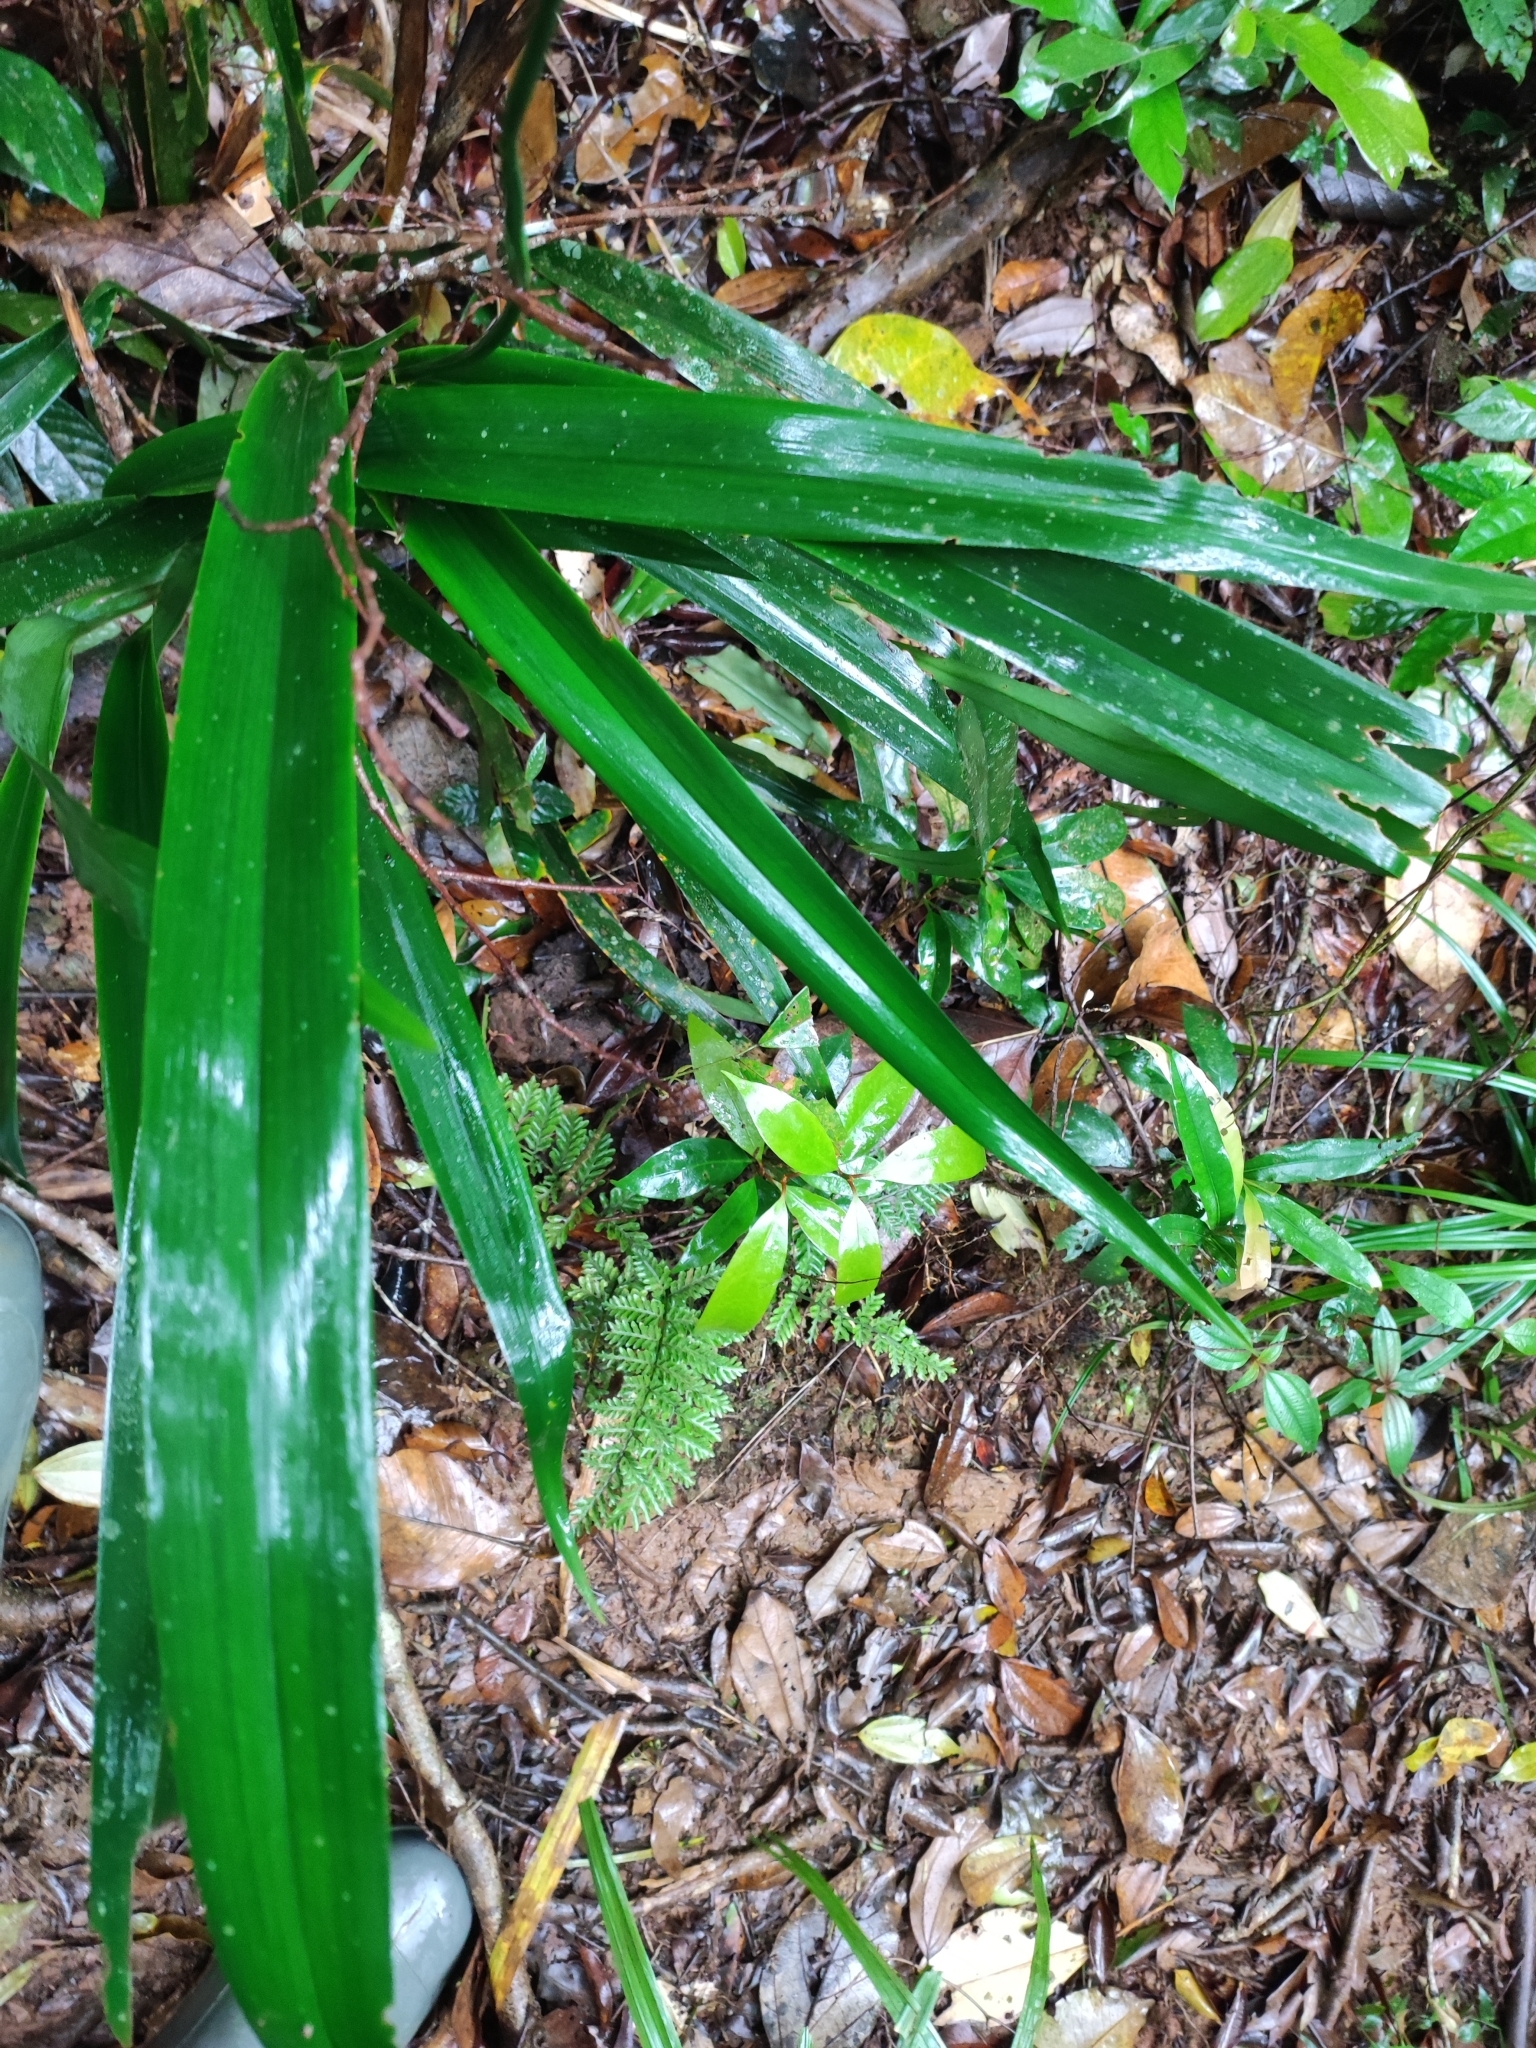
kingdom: Plantae
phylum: Tracheophyta
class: Liliopsida
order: Asparagales
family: Asphodelaceae
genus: Dianella
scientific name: Dianella ensifolia
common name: New zealand lilyplant
